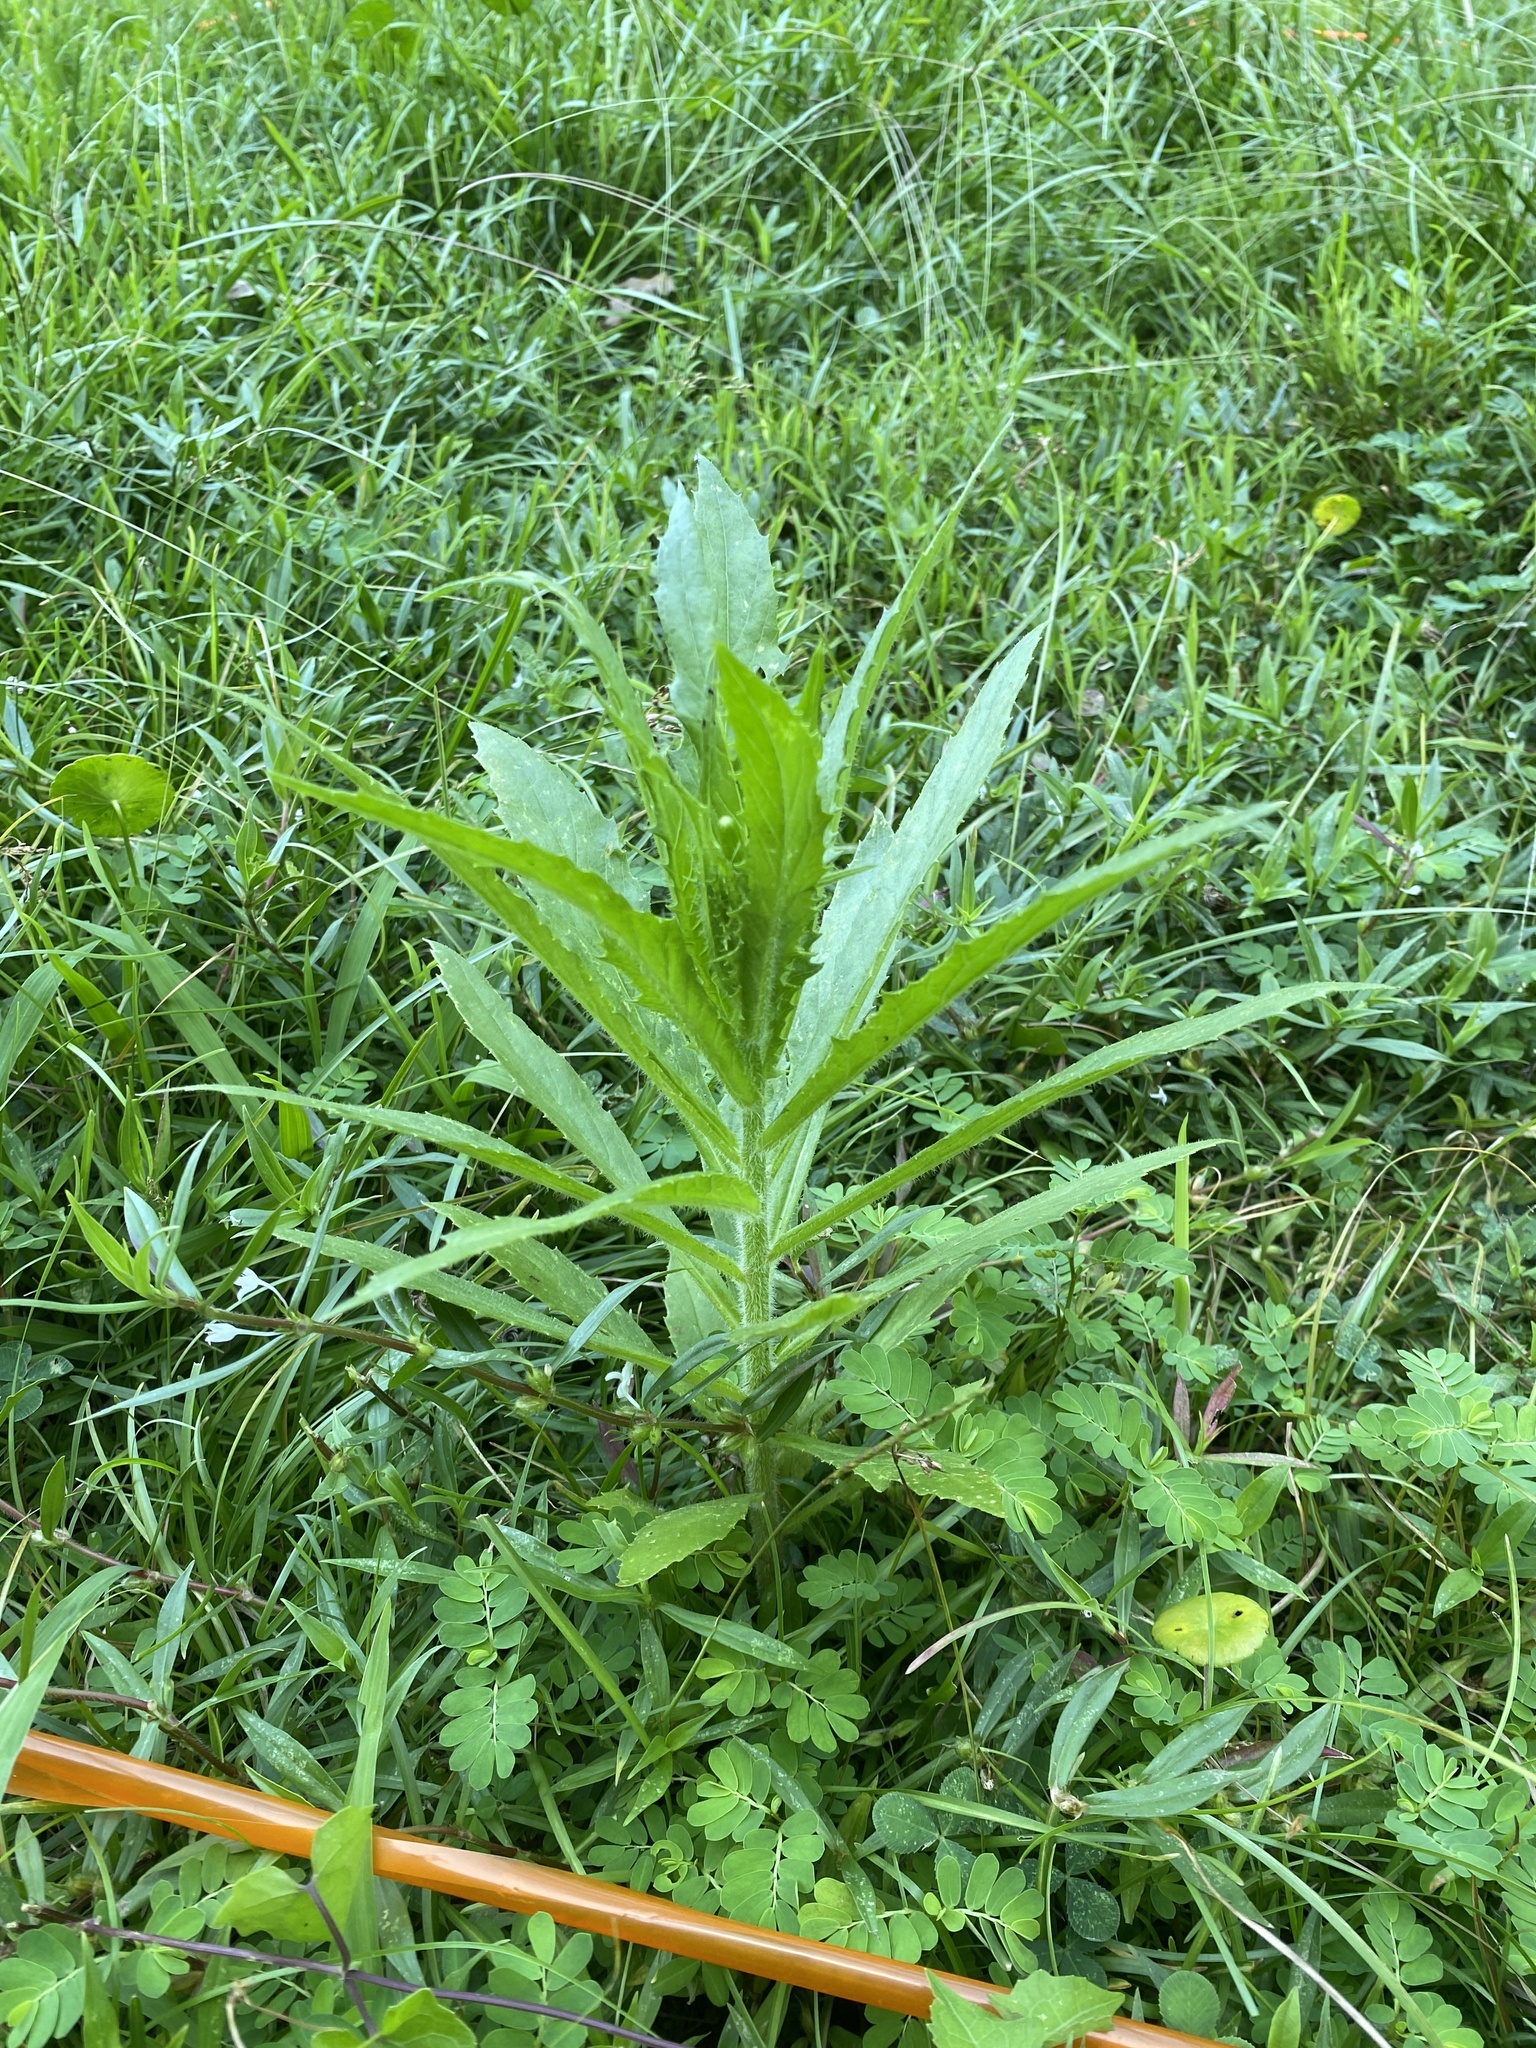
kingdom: Plantae
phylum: Tracheophyta
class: Magnoliopsida
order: Asterales
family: Asteraceae
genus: Erechtites
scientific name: Erechtites hieraciifolius
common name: American burnweed
